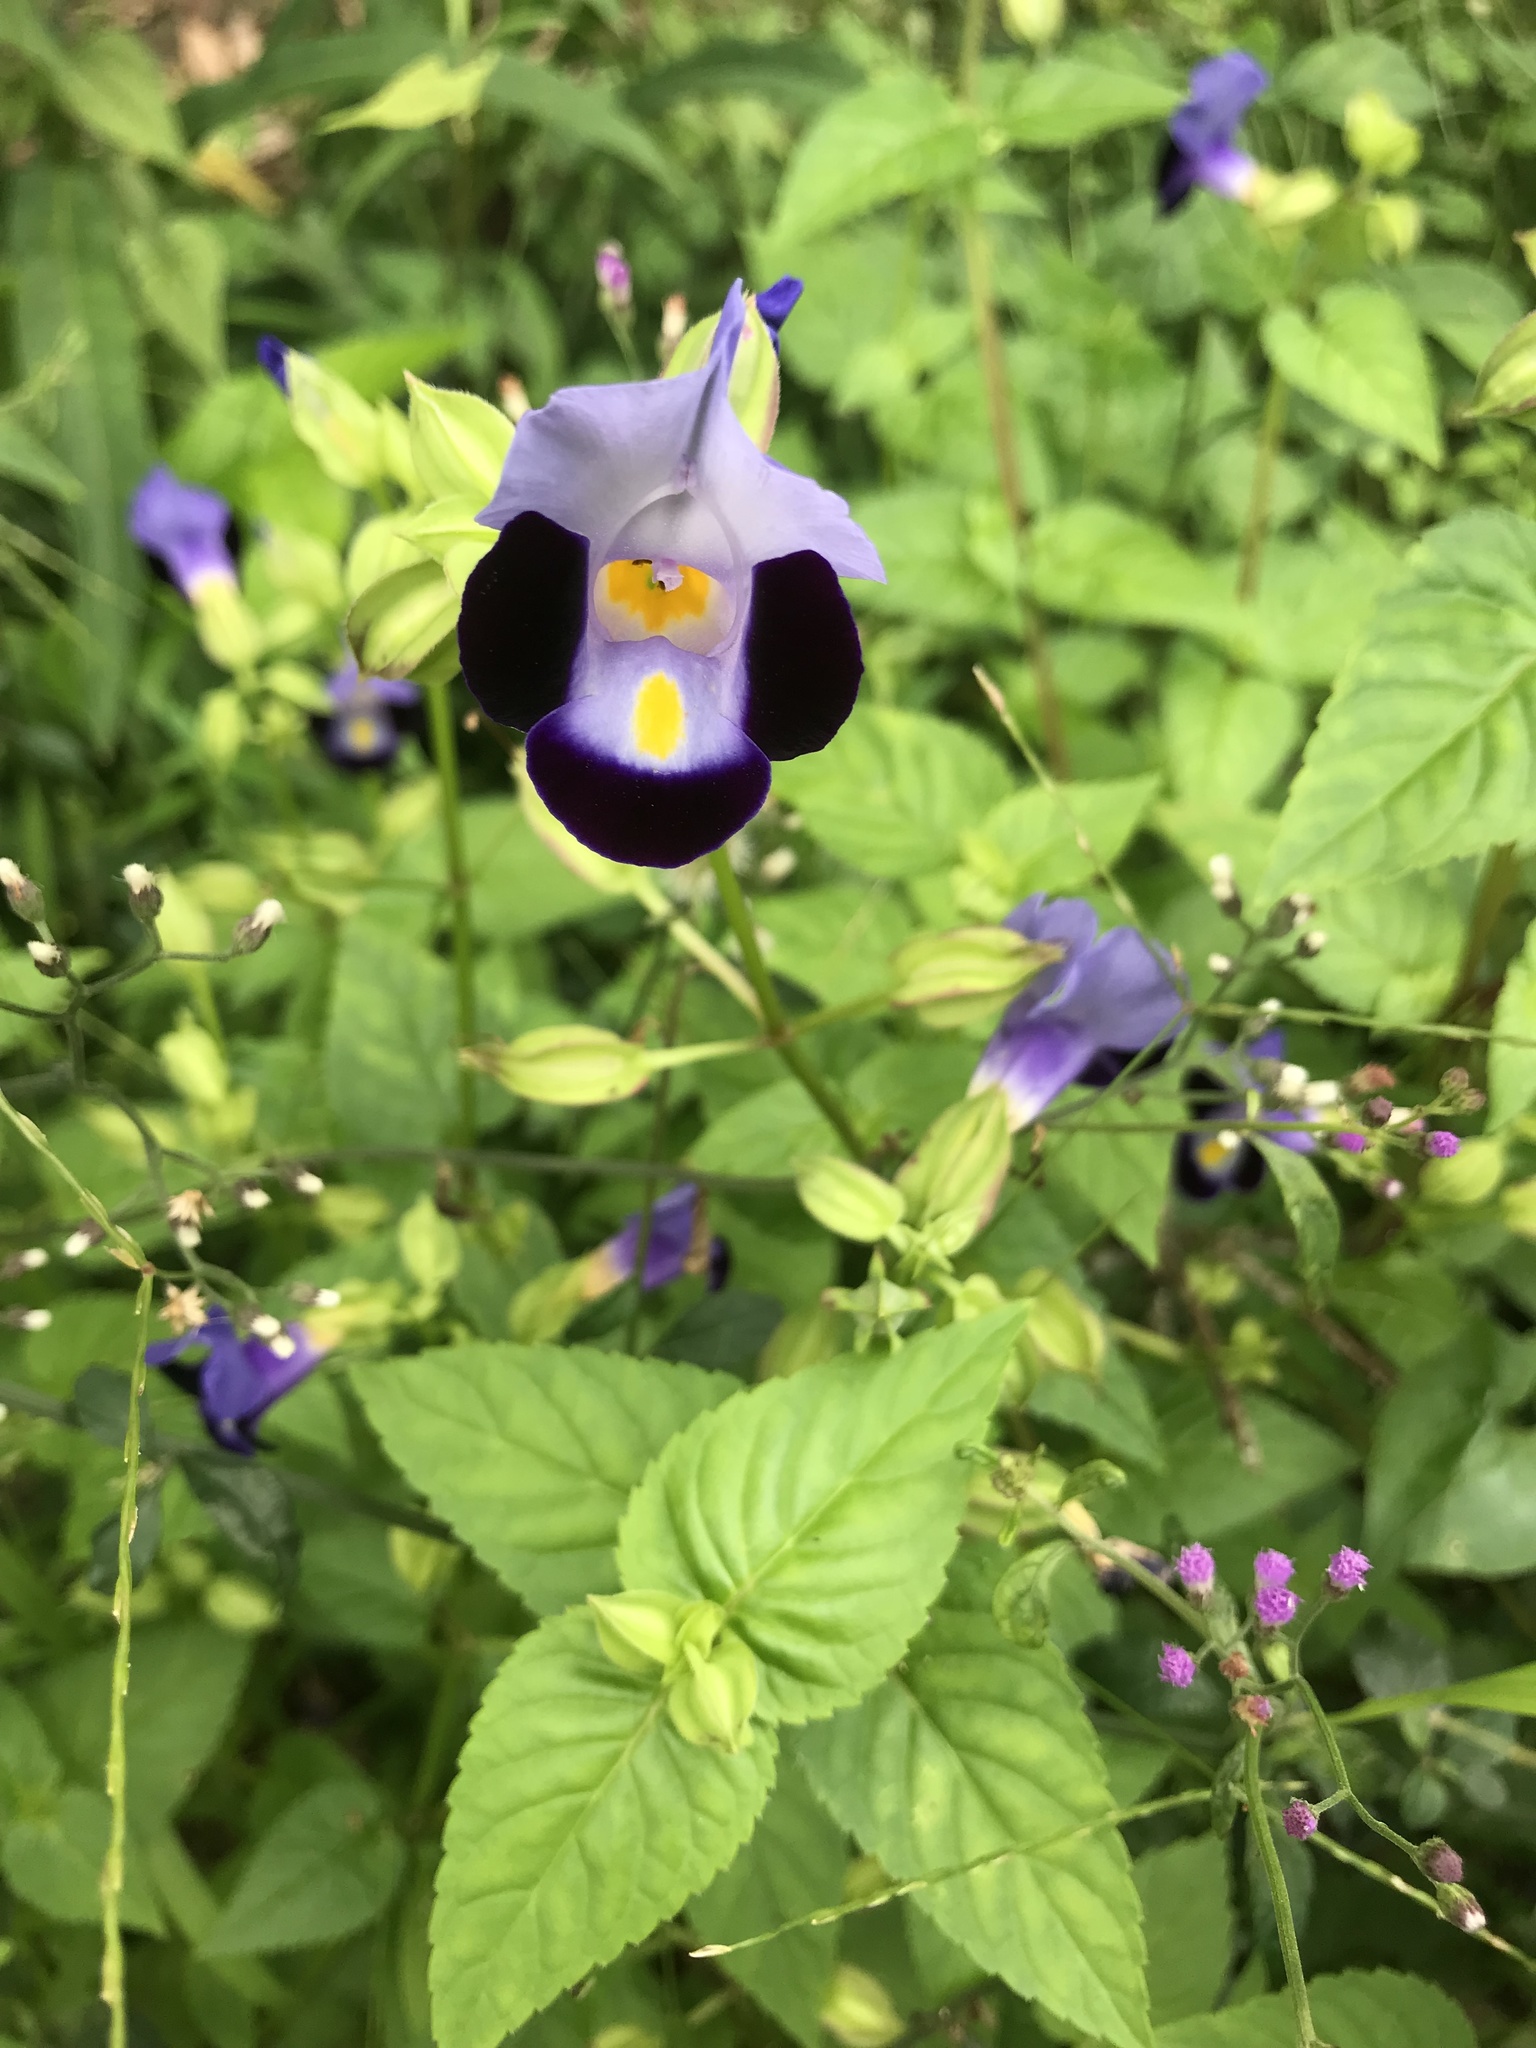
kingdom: Plantae
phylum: Tracheophyta
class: Magnoliopsida
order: Lamiales
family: Linderniaceae
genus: Torenia
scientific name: Torenia fournieri
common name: Bluewings
